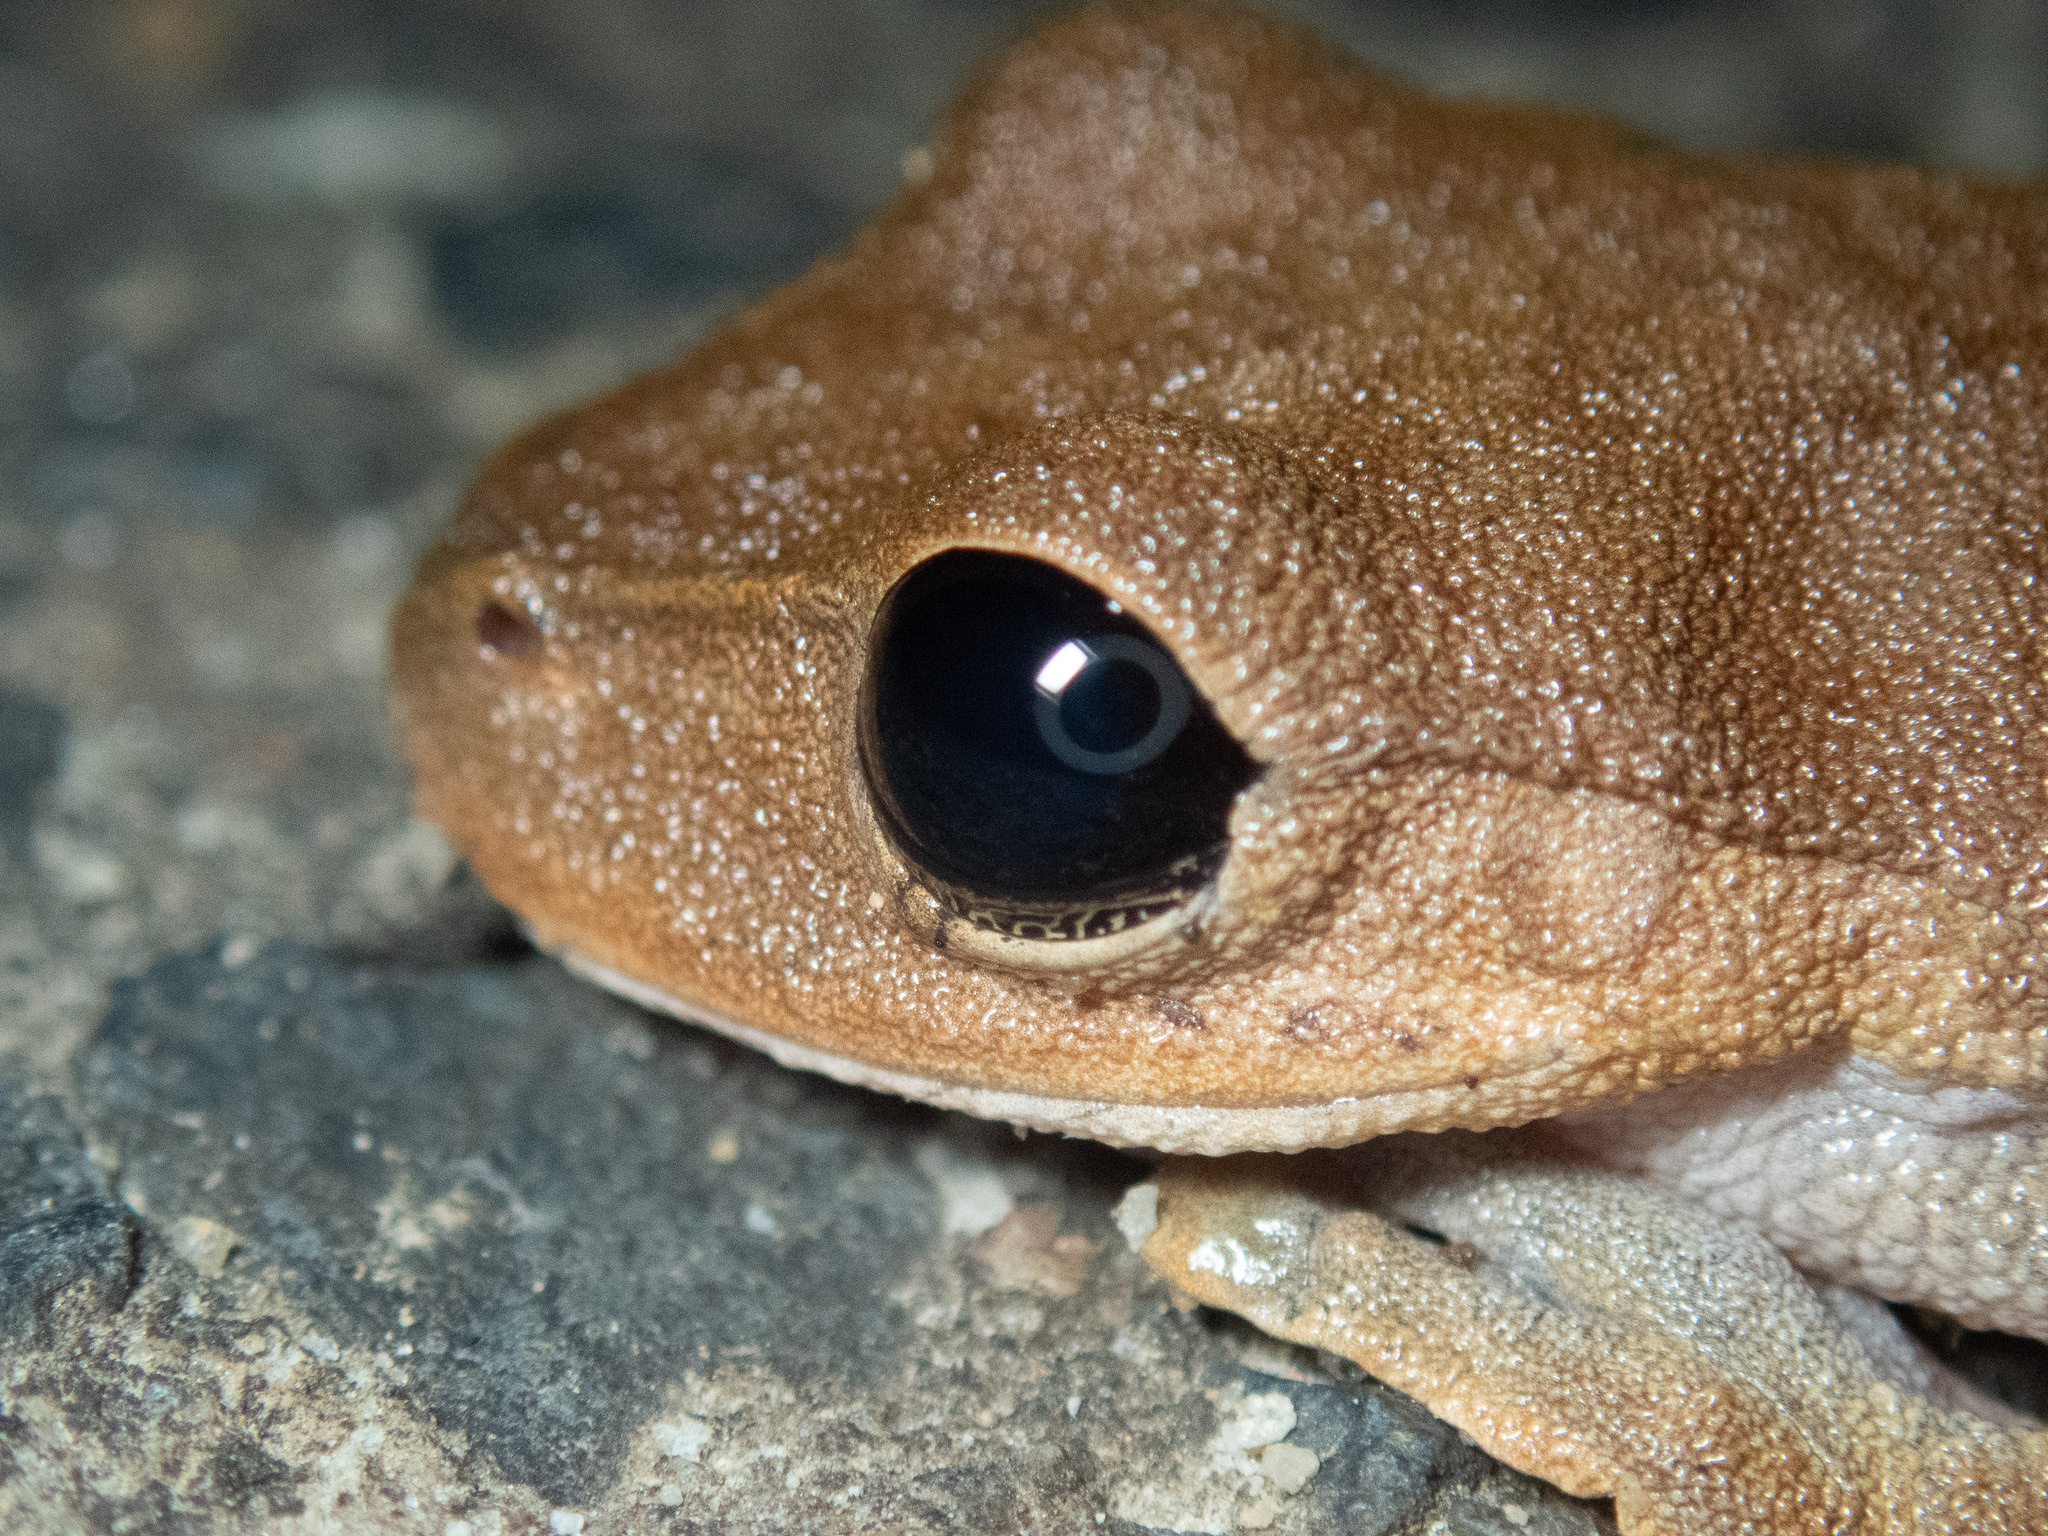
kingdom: Animalia
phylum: Chordata
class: Amphibia
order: Anura
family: Pelodryadidae
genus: Ranoidea
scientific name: Ranoidea dayi
